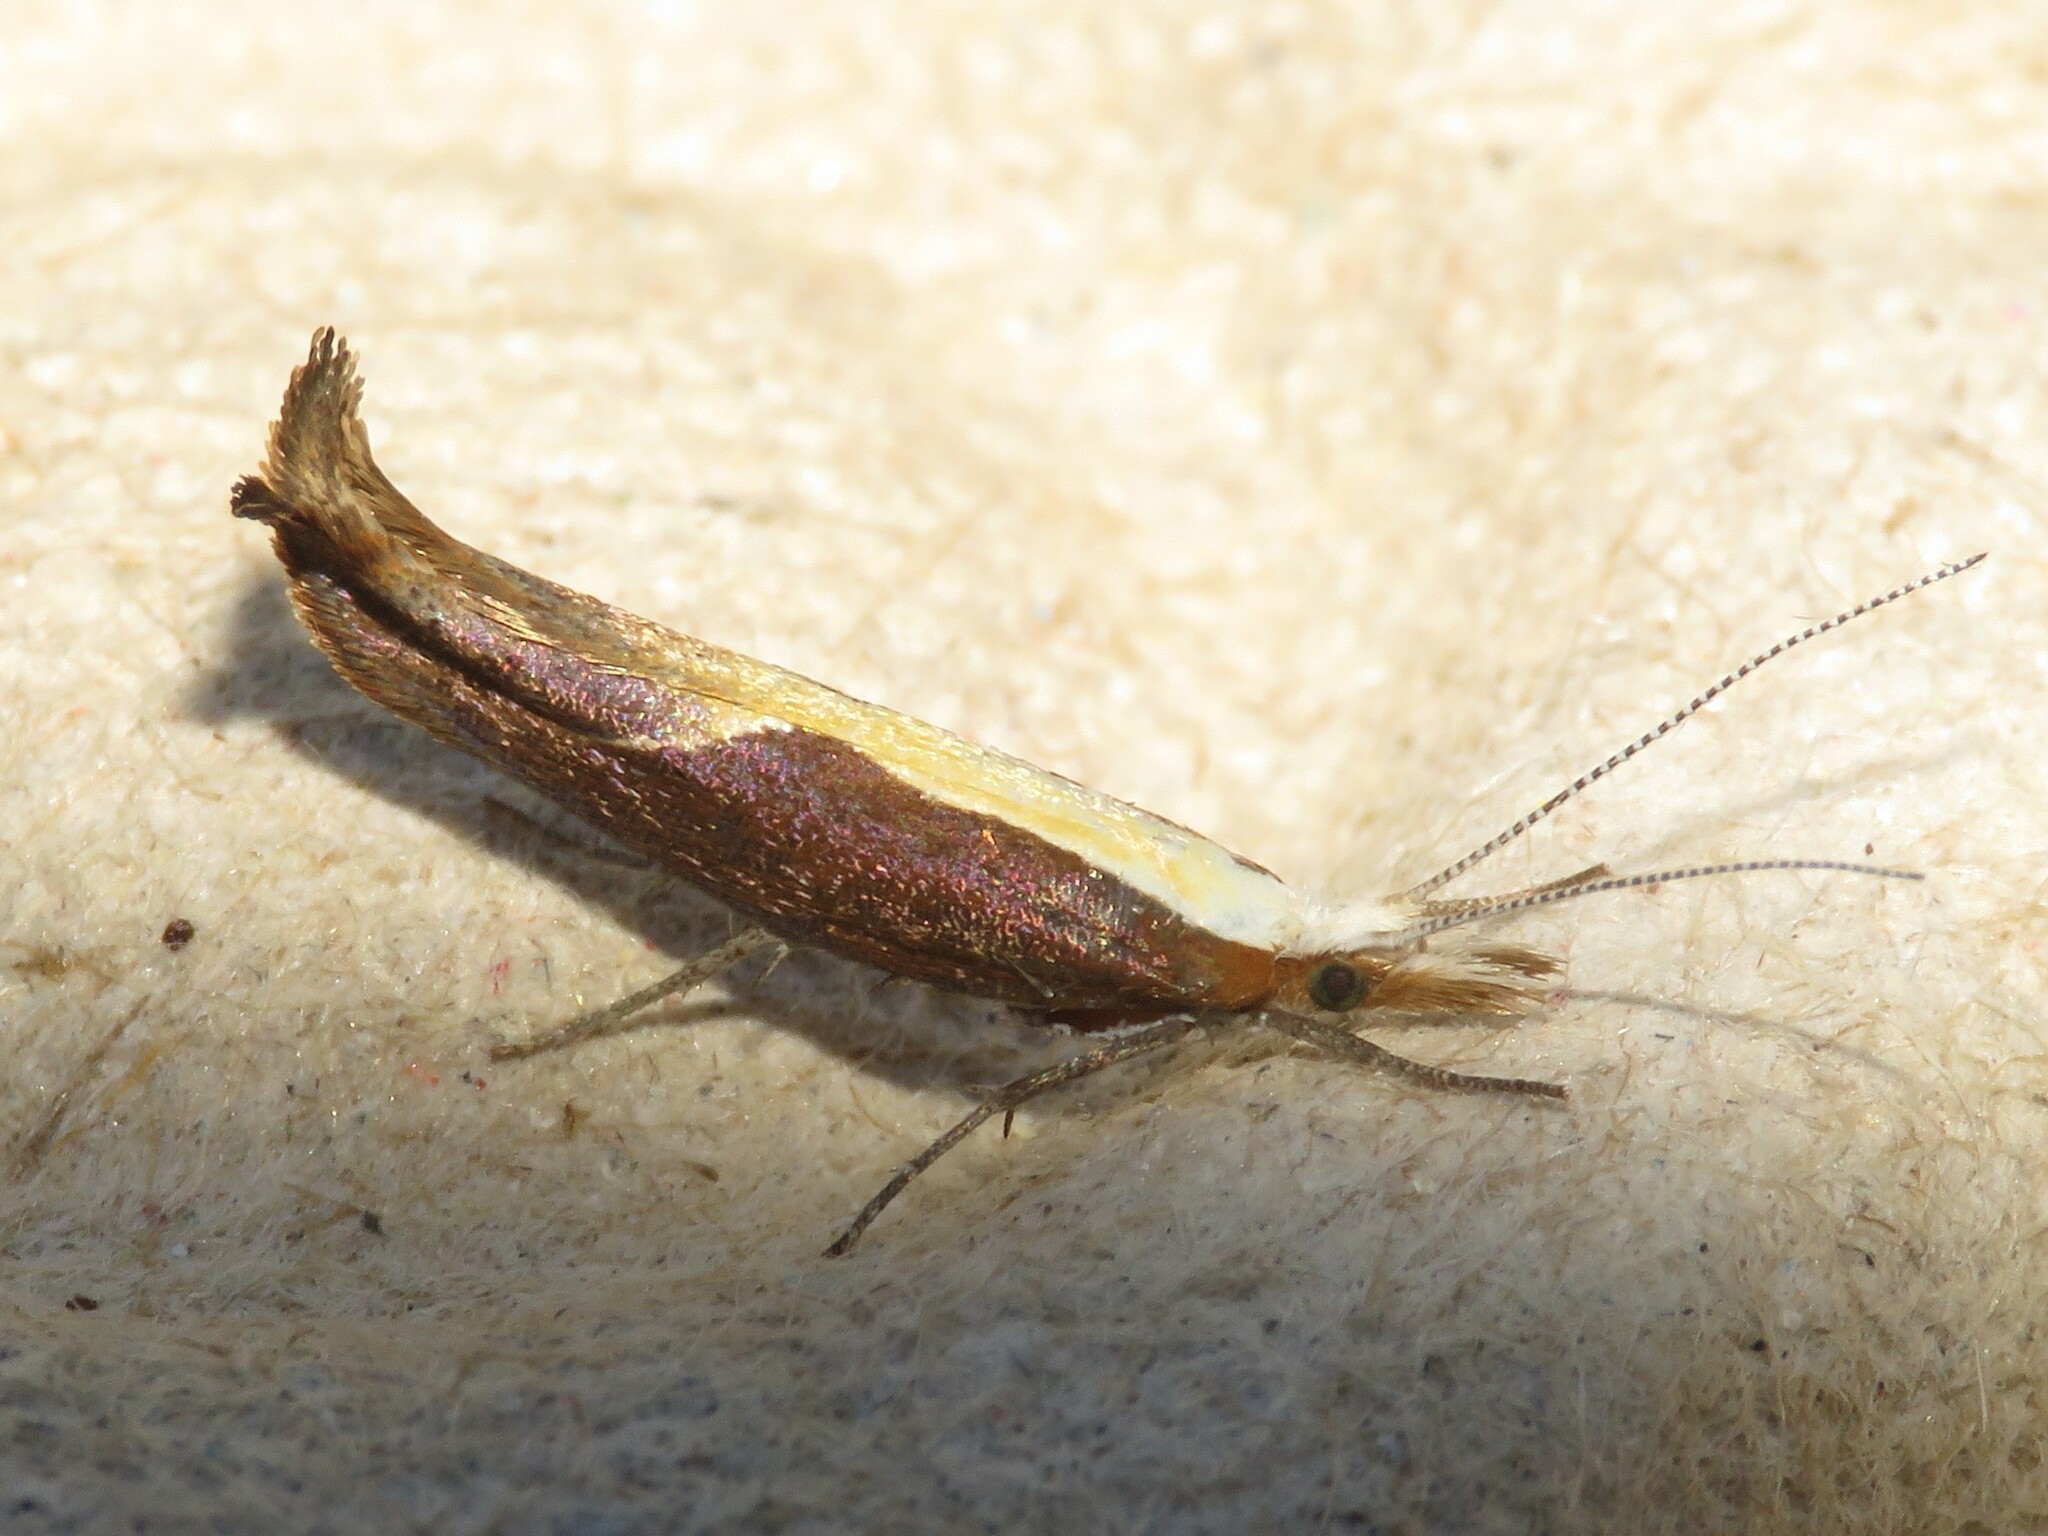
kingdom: Animalia
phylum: Arthropoda
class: Insecta
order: Lepidoptera
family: Ypsolophidae
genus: Ypsolopha
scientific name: Ypsolopha dentella
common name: Honeysuckle moth
